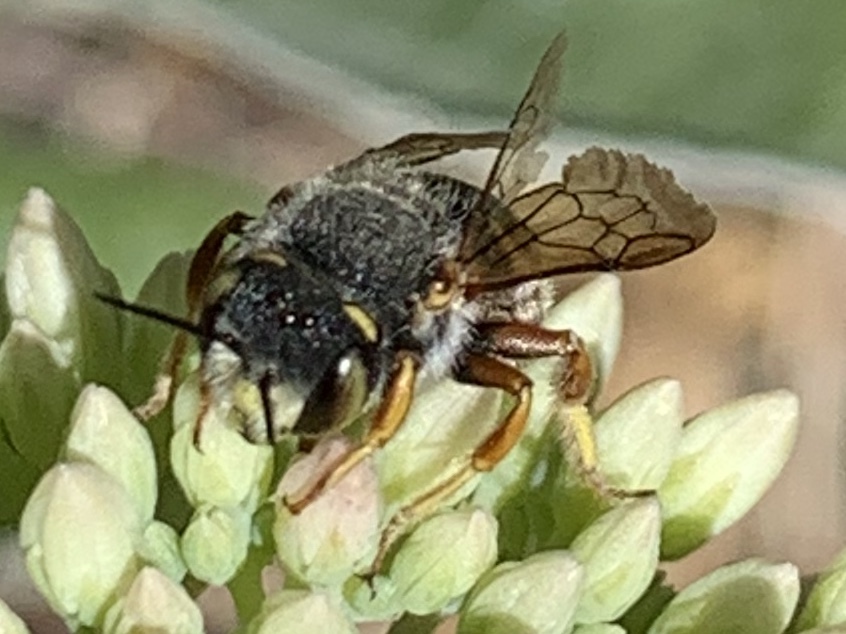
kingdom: Animalia
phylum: Arthropoda
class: Insecta
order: Hymenoptera
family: Megachilidae
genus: Anthidium
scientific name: Anthidium oblongatum
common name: Oblong wool carder bee
